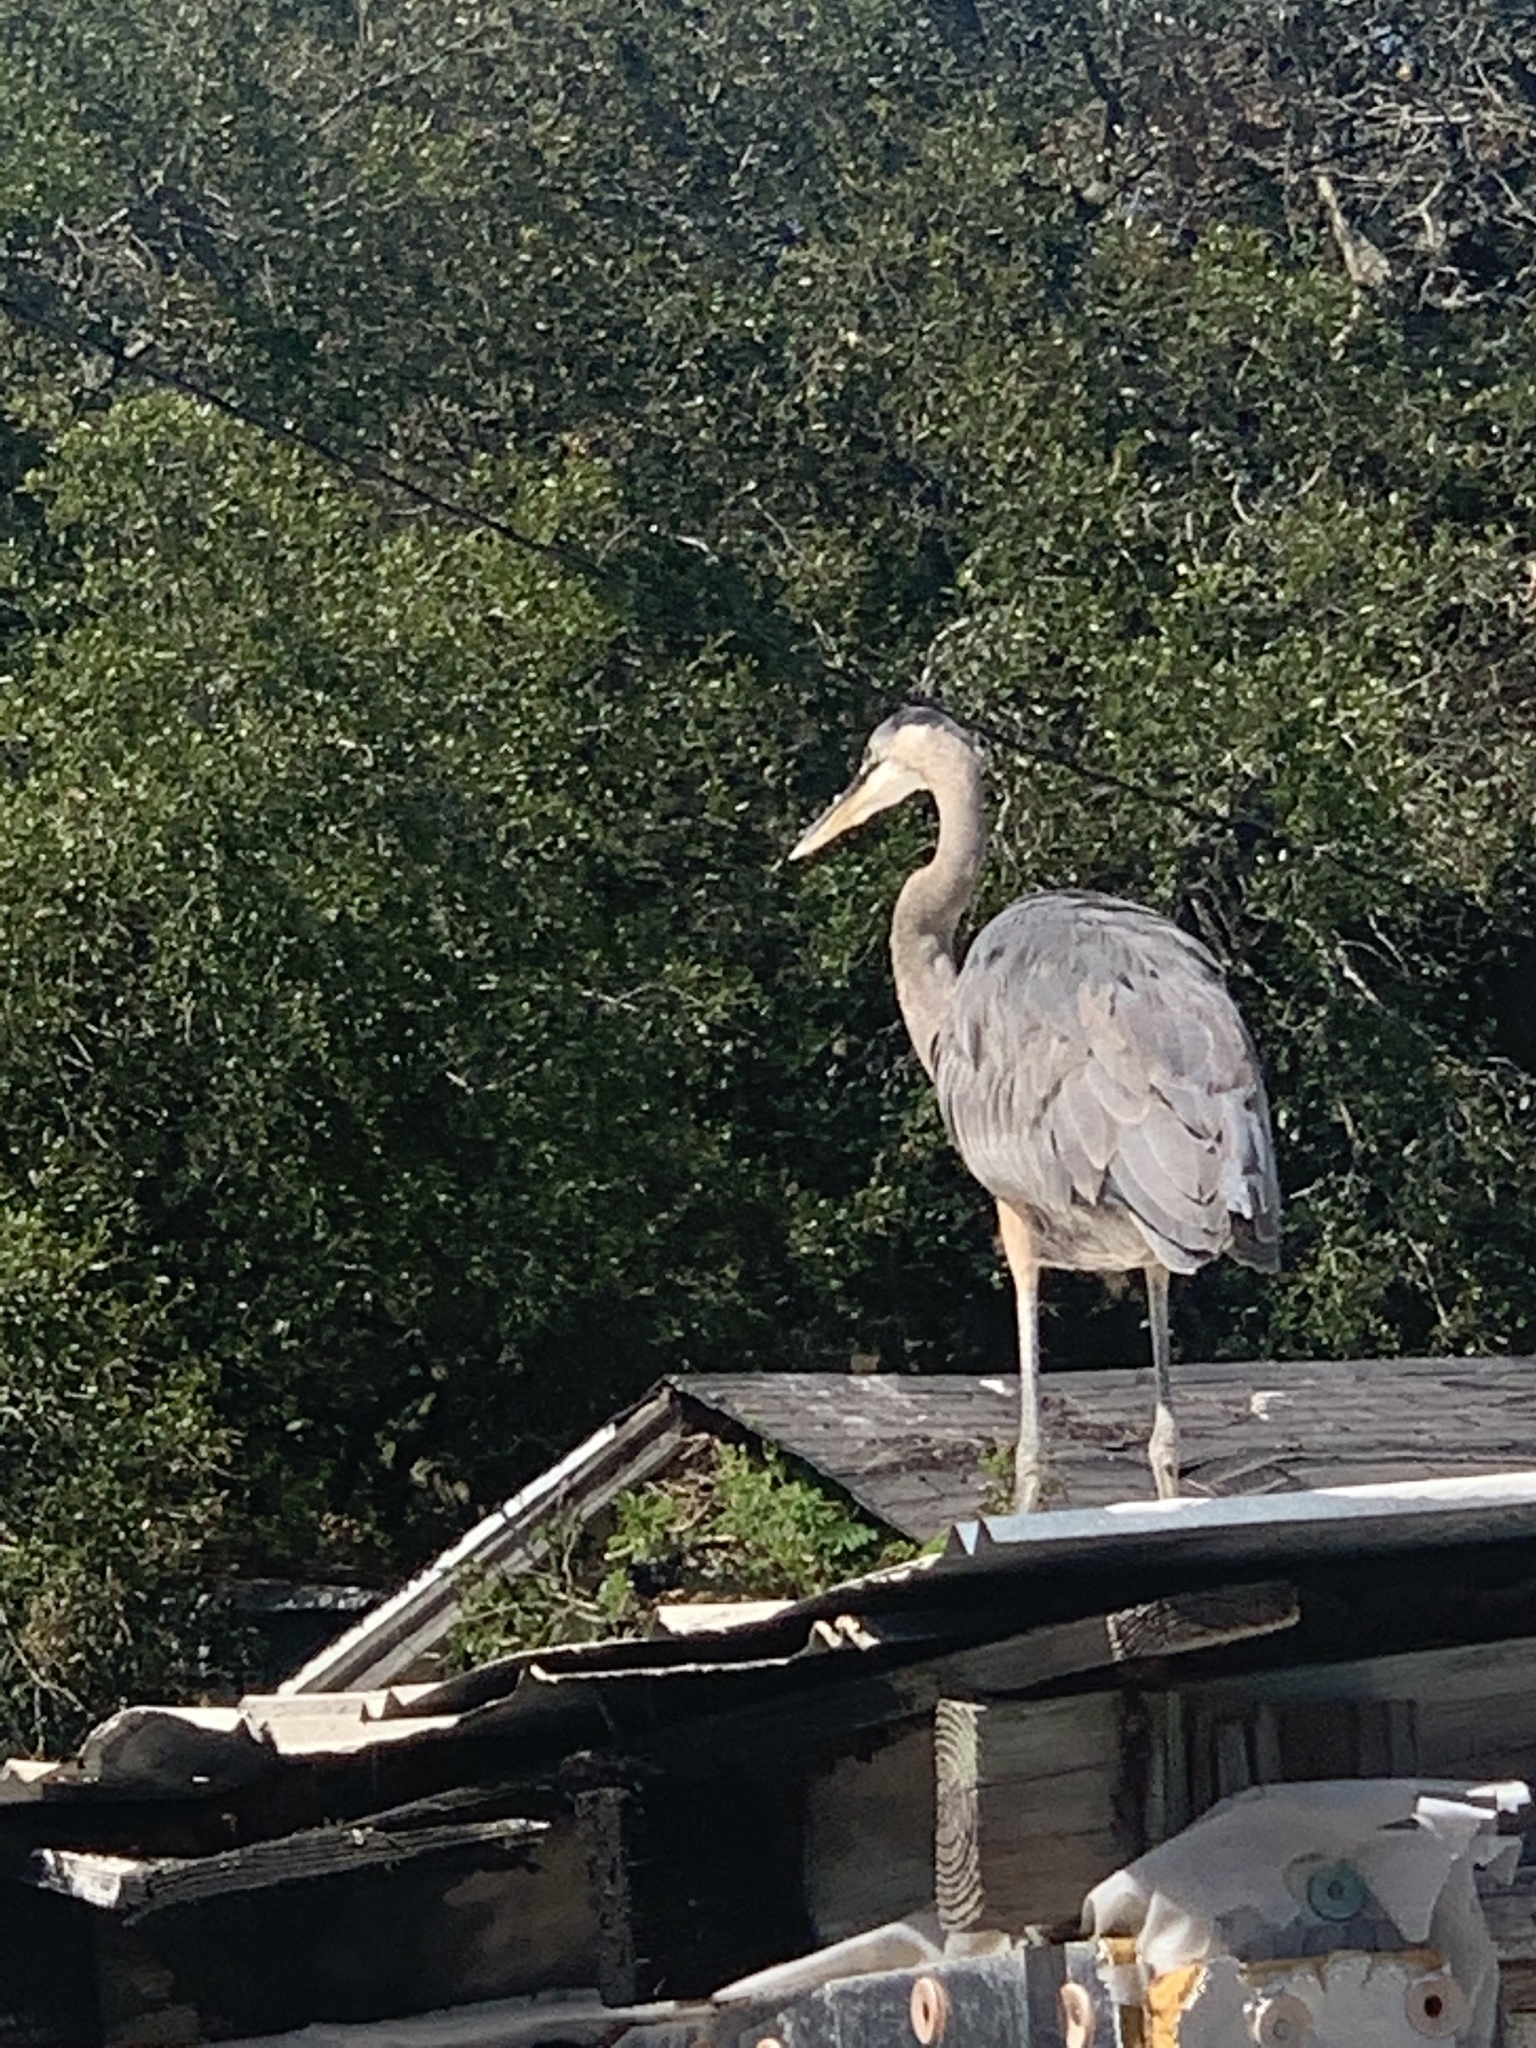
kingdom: Animalia
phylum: Chordata
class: Aves
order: Pelecaniformes
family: Ardeidae
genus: Ardea
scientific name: Ardea herodias
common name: Great blue heron
